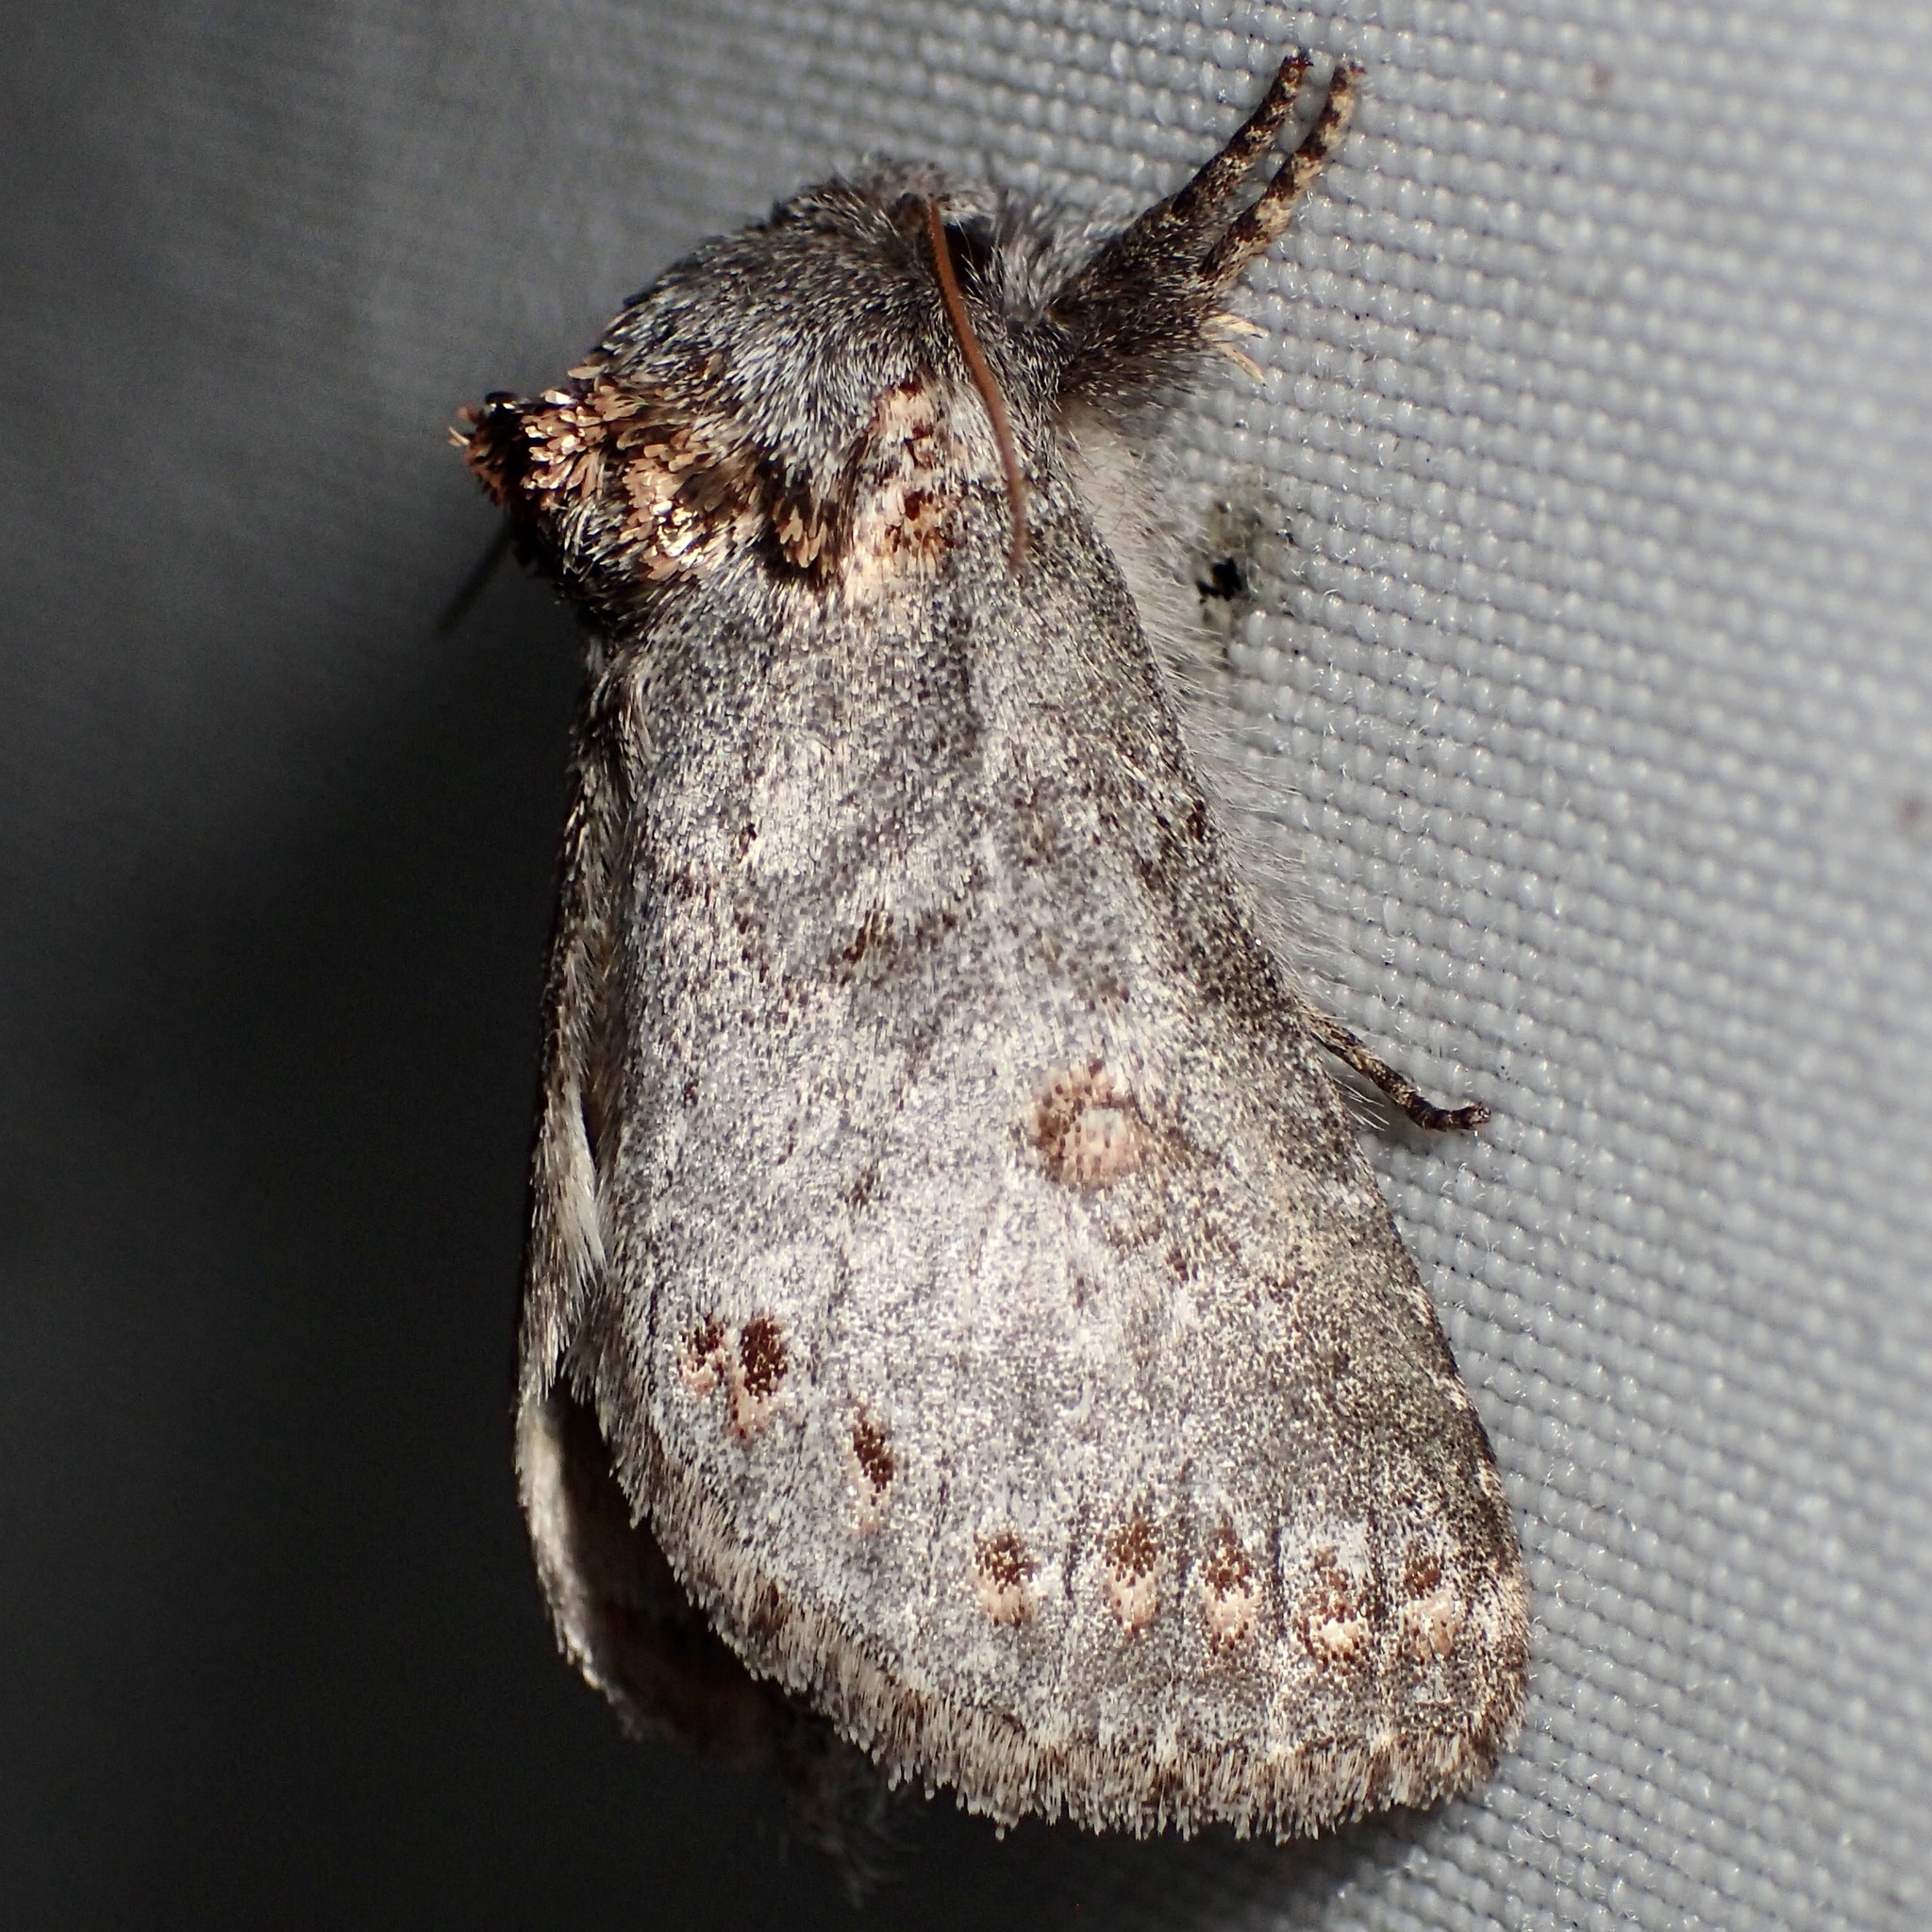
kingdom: Animalia
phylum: Arthropoda
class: Insecta
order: Lepidoptera
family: Notodontidae
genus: Theroa
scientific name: Theroa zethus
